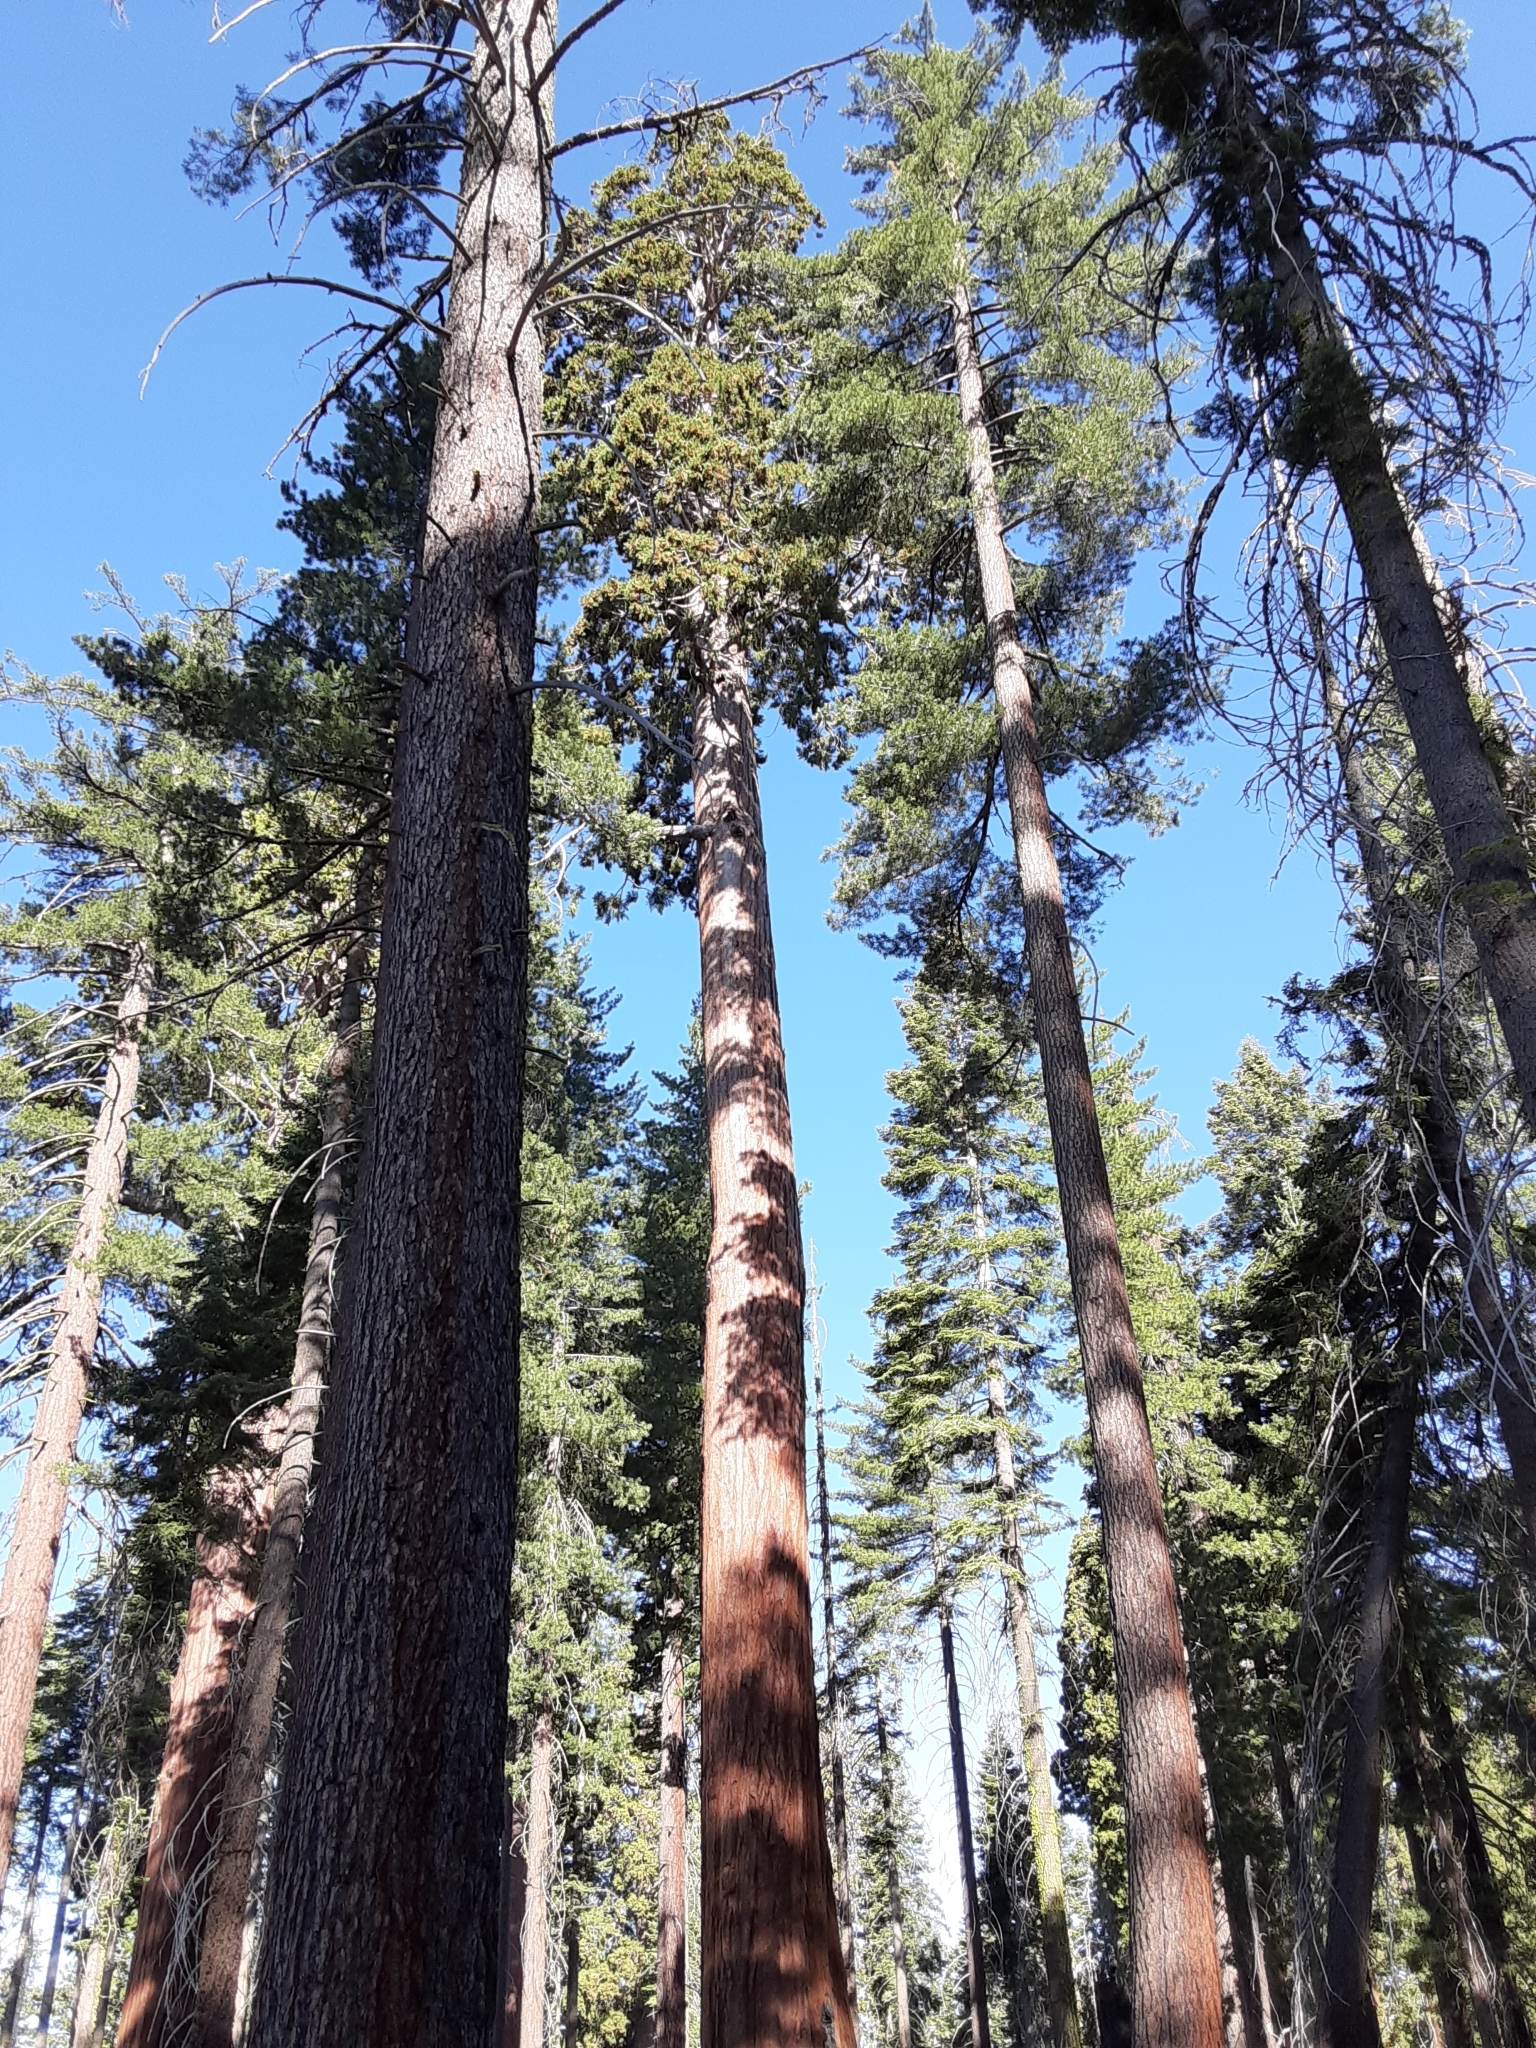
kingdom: Plantae
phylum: Tracheophyta
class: Pinopsida
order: Pinales
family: Cupressaceae
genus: Sequoiadendron
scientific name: Sequoiadendron giganteum
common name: Wellingtonia
